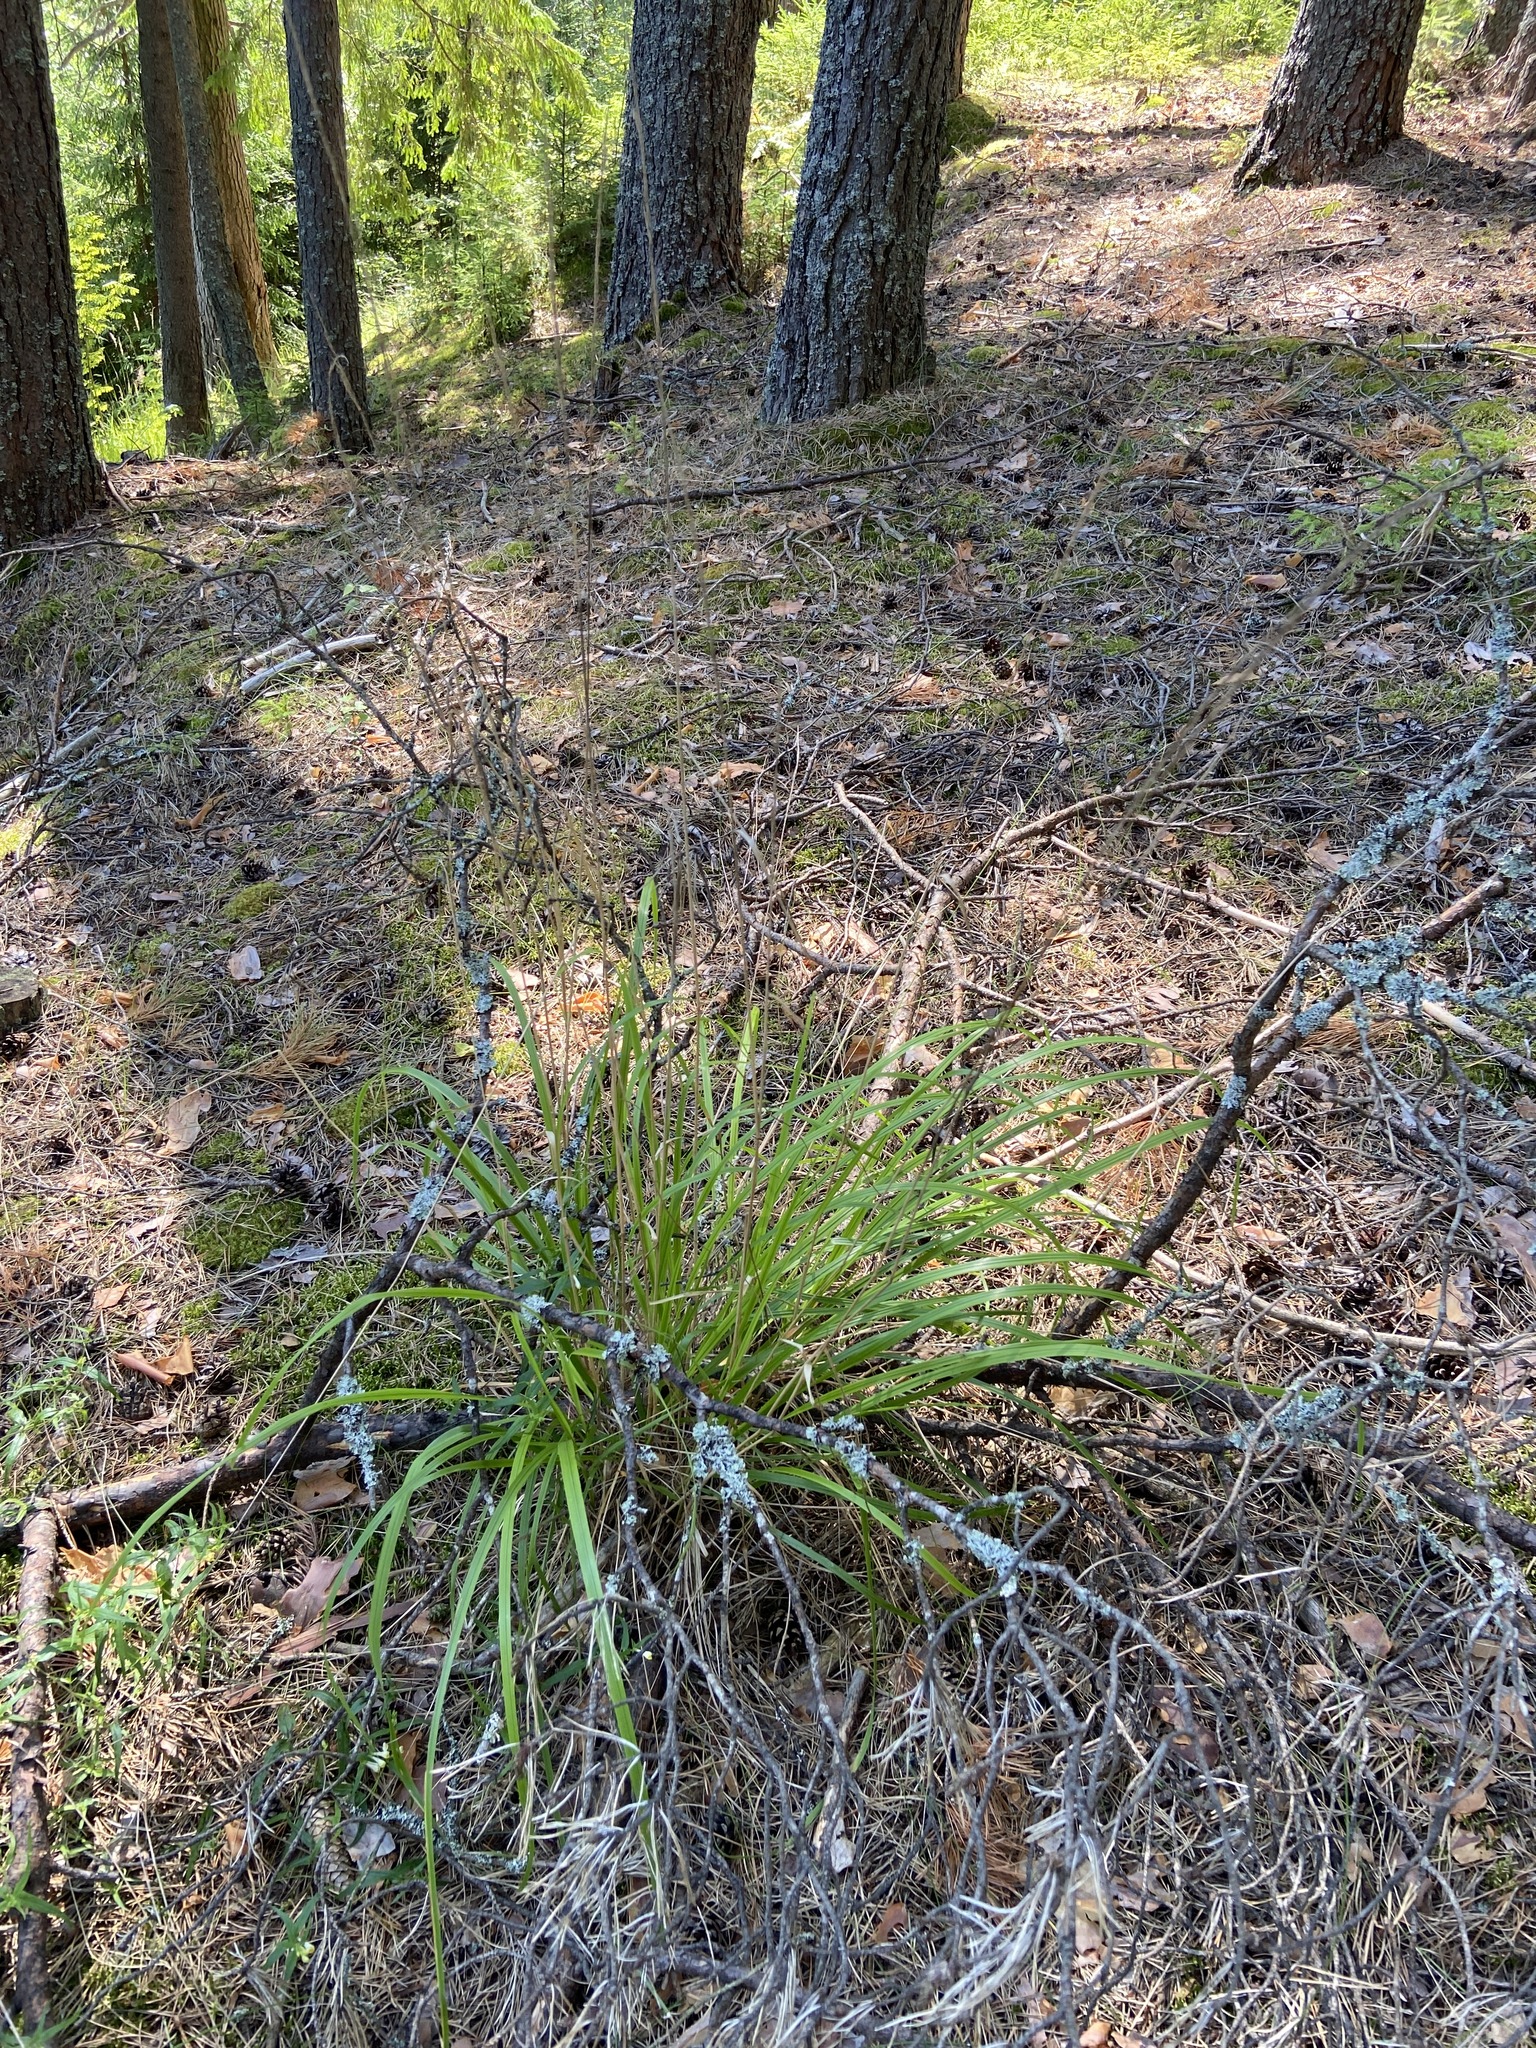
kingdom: Plantae
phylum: Tracheophyta
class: Liliopsida
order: Poales
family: Poaceae
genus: Calamagrostis
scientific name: Calamagrostis arundinacea
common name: Metskastik
